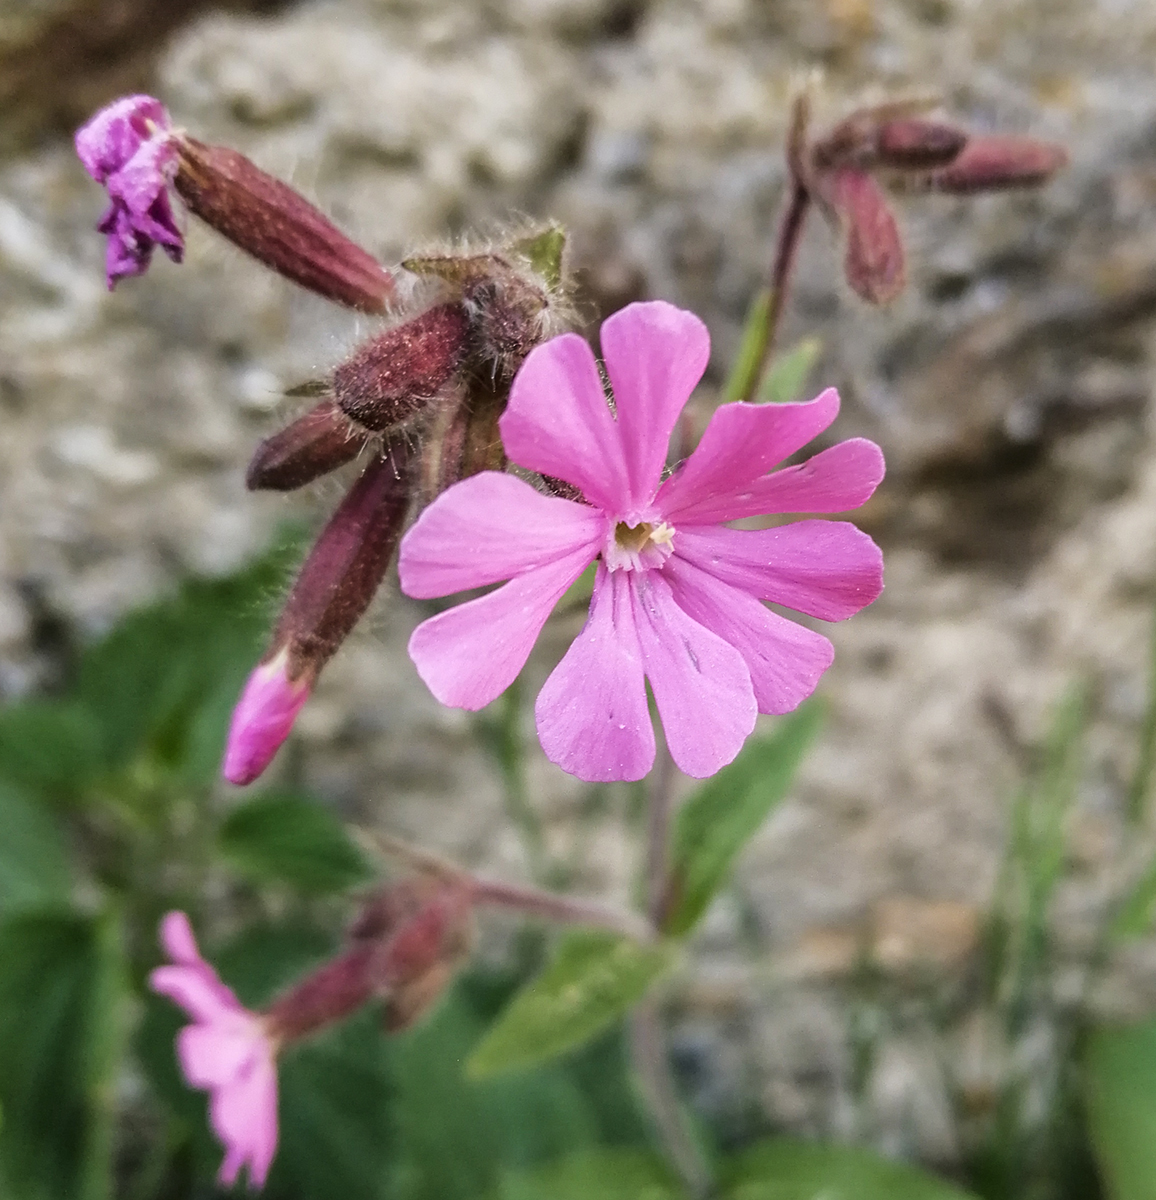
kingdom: Plantae
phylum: Tracheophyta
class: Magnoliopsida
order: Caryophyllales
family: Caryophyllaceae
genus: Silene
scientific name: Silene dioica
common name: Red campion
